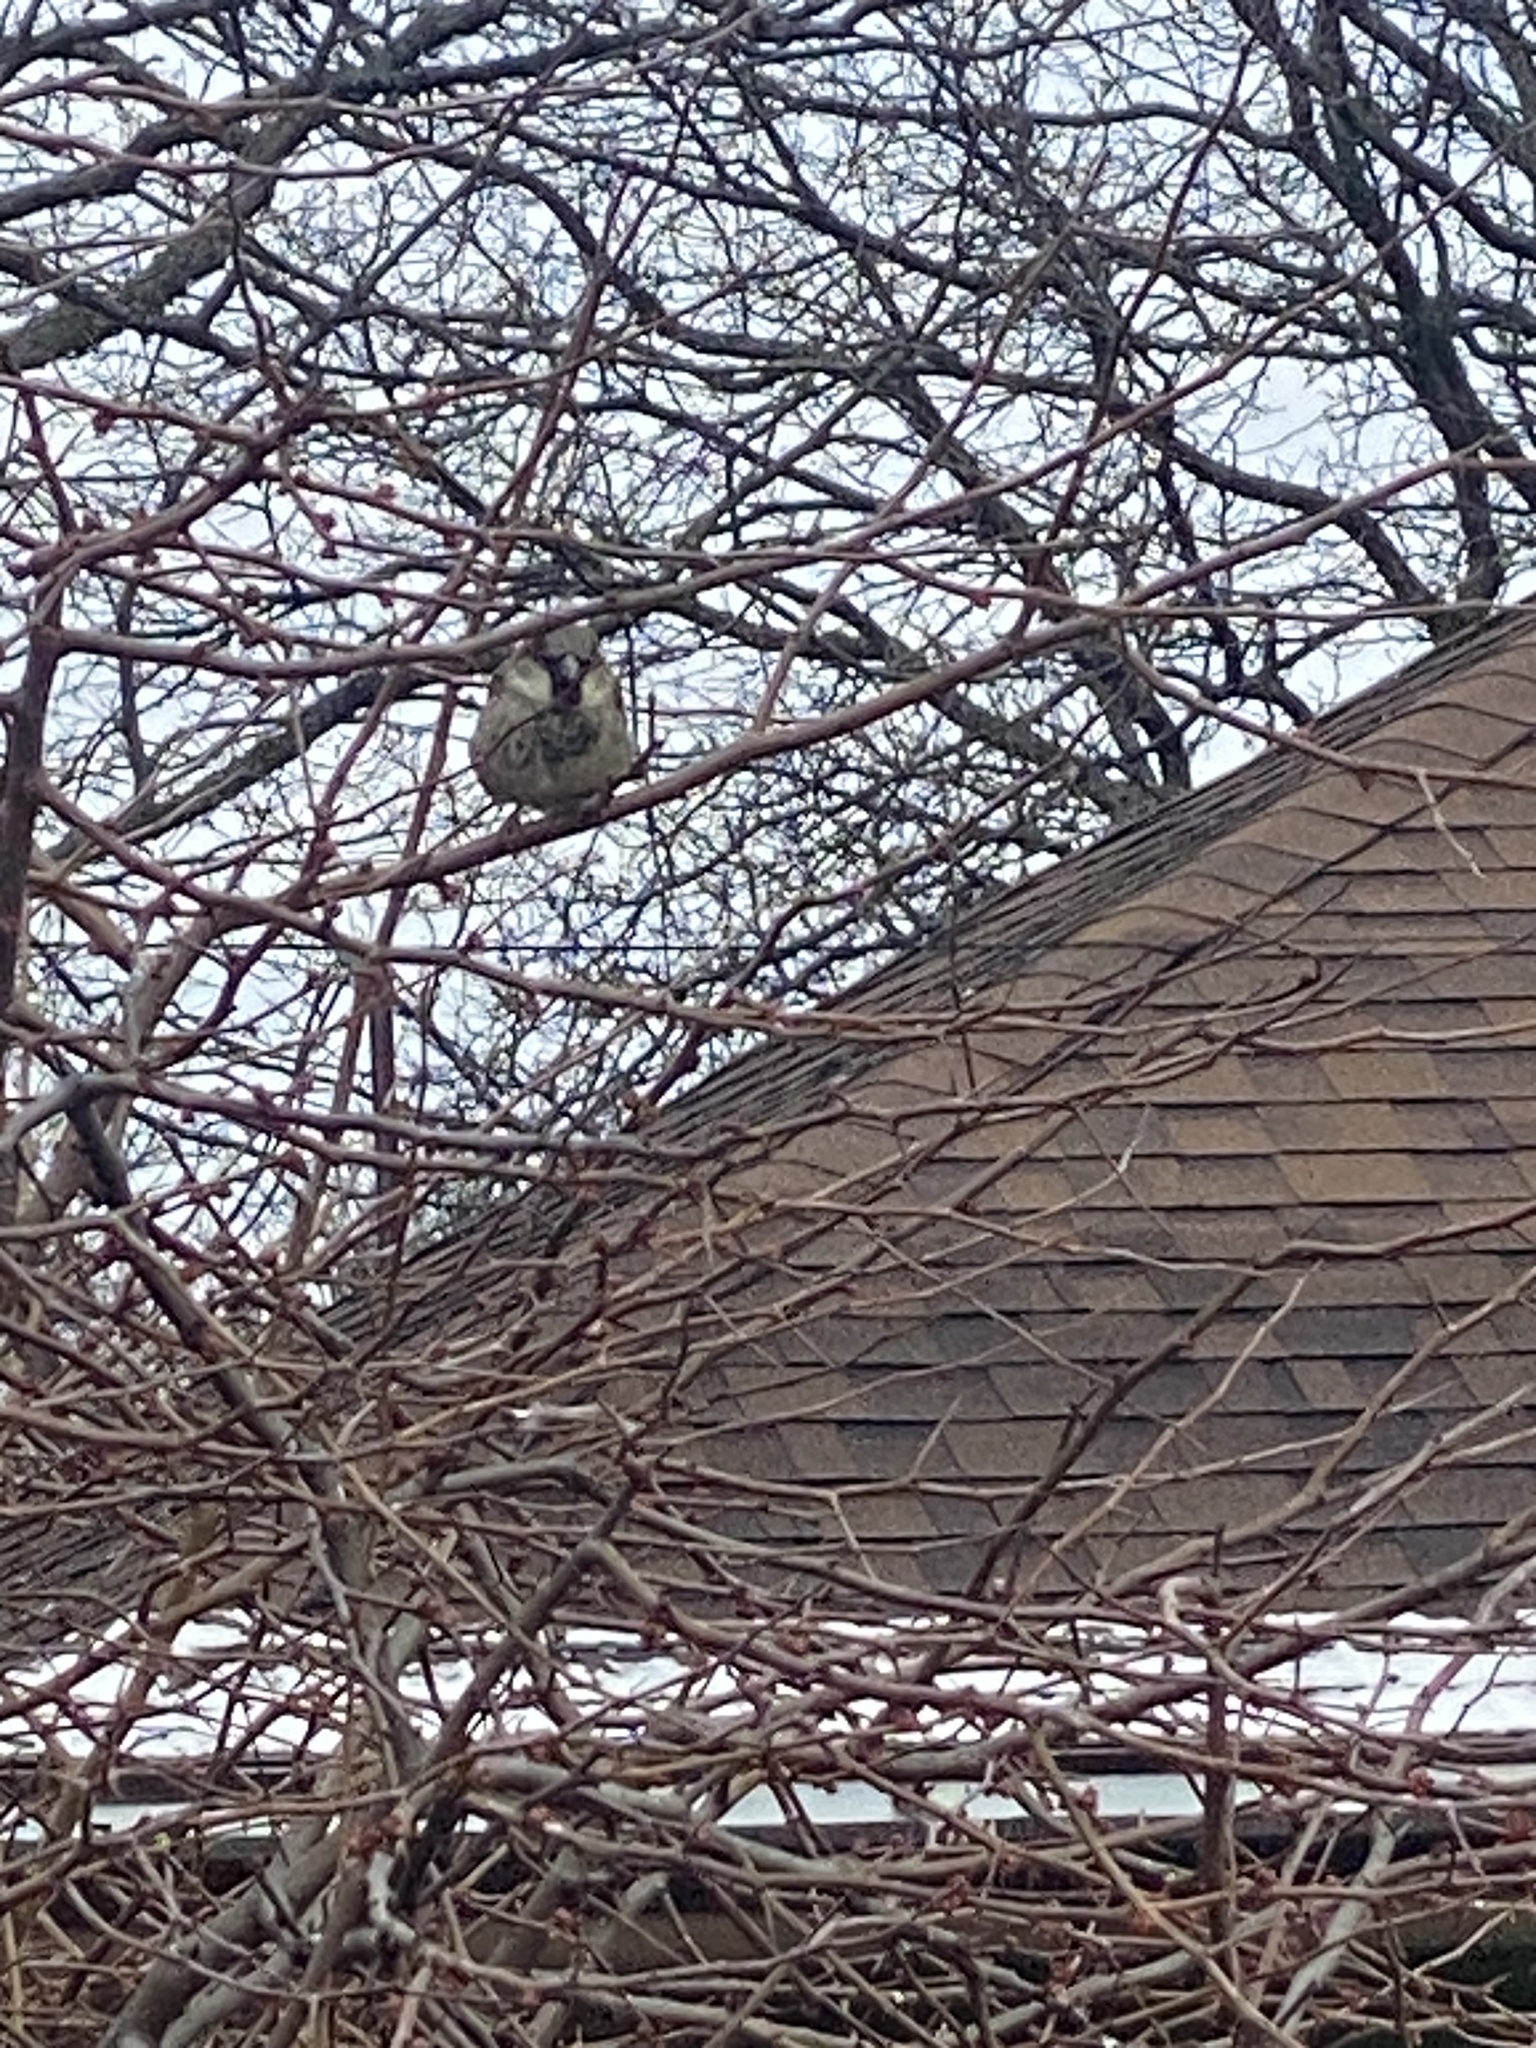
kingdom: Animalia
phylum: Chordata
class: Aves
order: Passeriformes
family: Passeridae
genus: Passer
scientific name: Passer domesticus
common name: House sparrow
